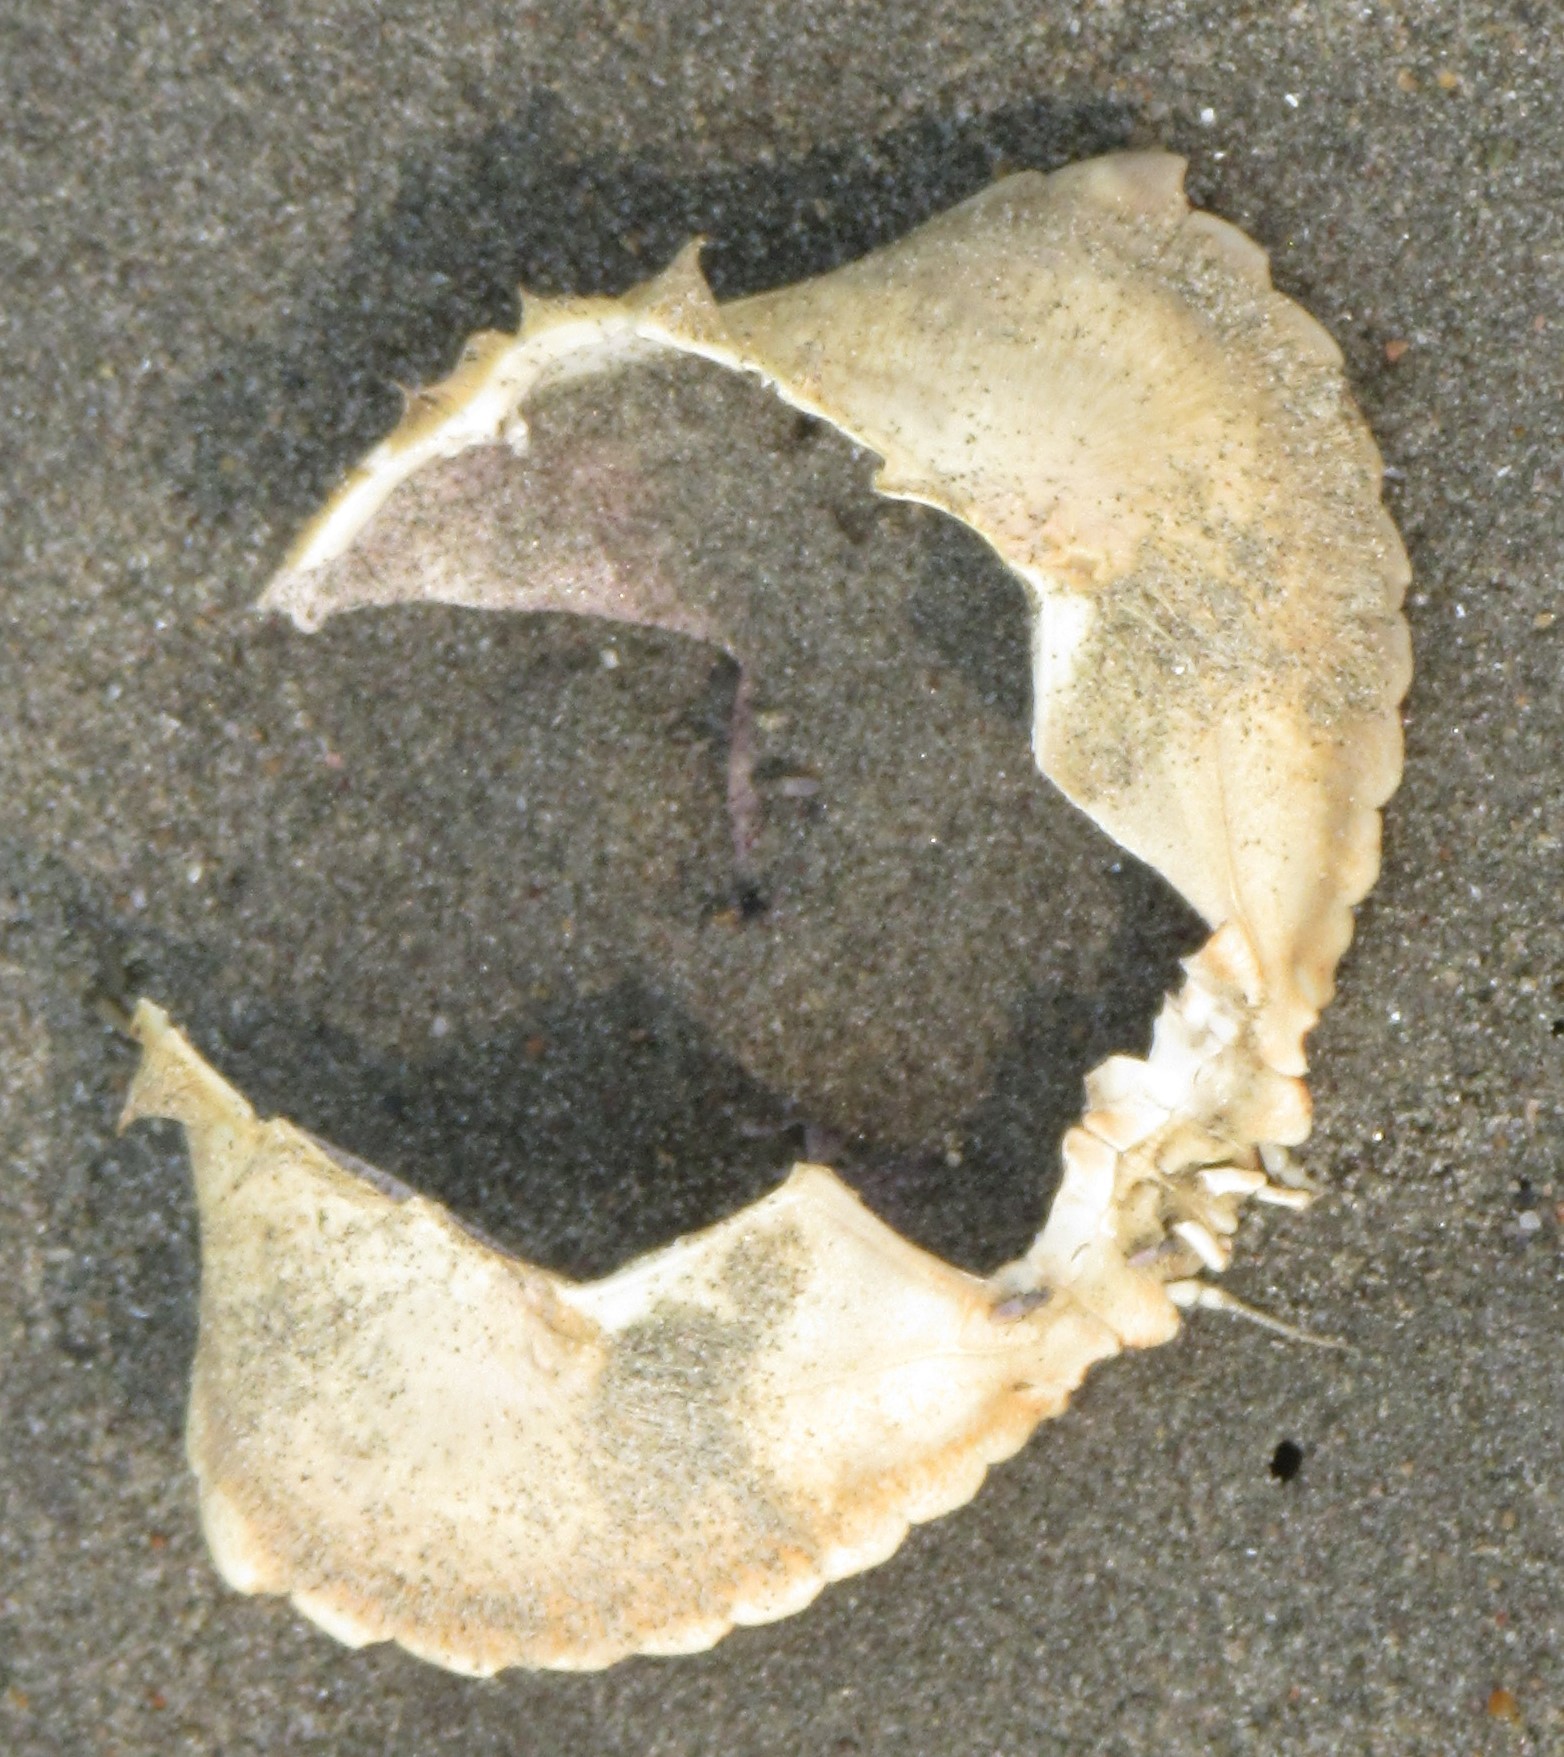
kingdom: Animalia
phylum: Arthropoda
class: Malacostraca
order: Decapoda
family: Cancridae
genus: Cancer
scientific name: Cancer irroratus
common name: Atlantic rock crab
